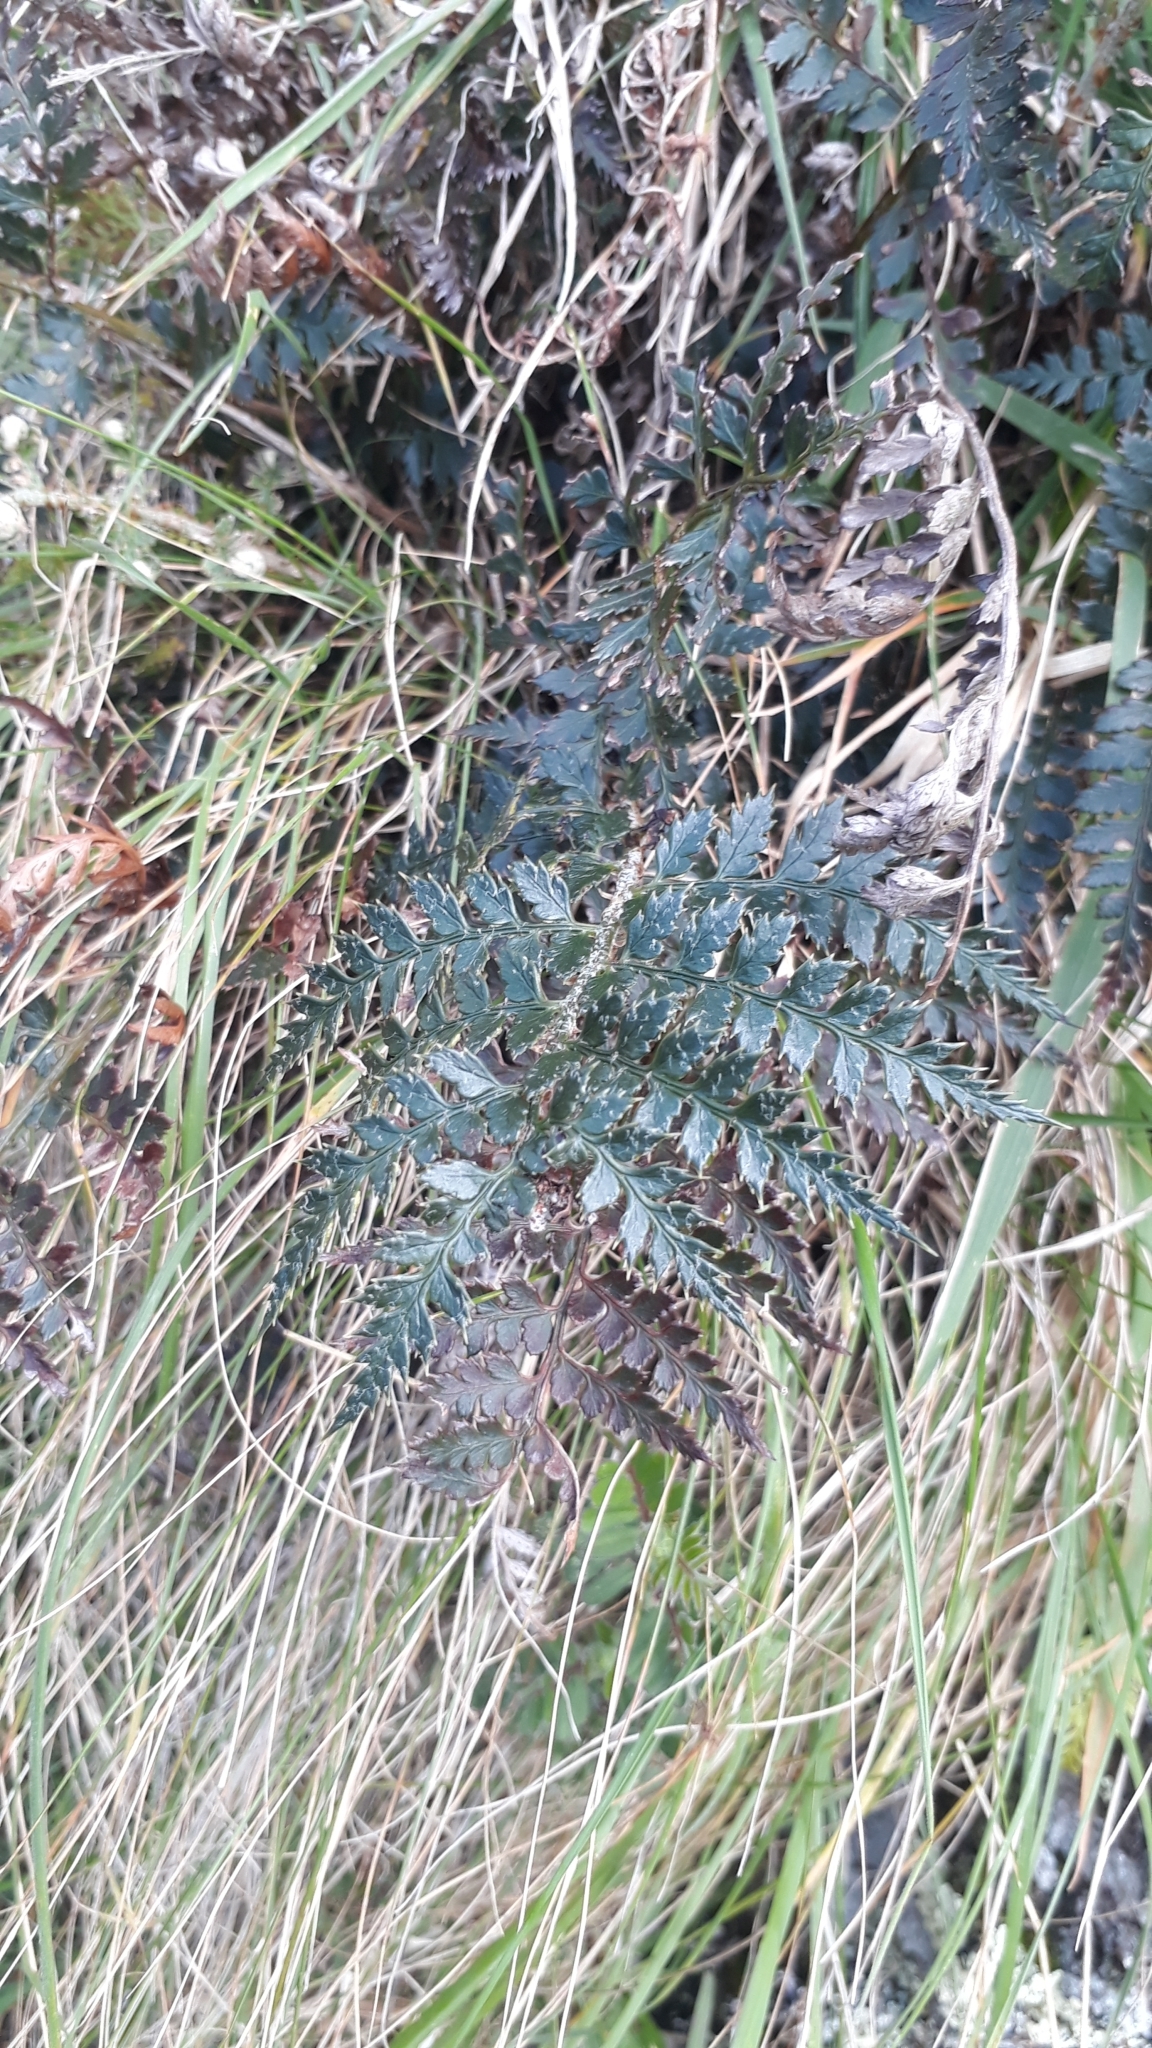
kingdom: Plantae
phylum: Tracheophyta
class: Polypodiopsida
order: Polypodiales
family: Dryopteridaceae
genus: Polystichum
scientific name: Polystichum oculatum
